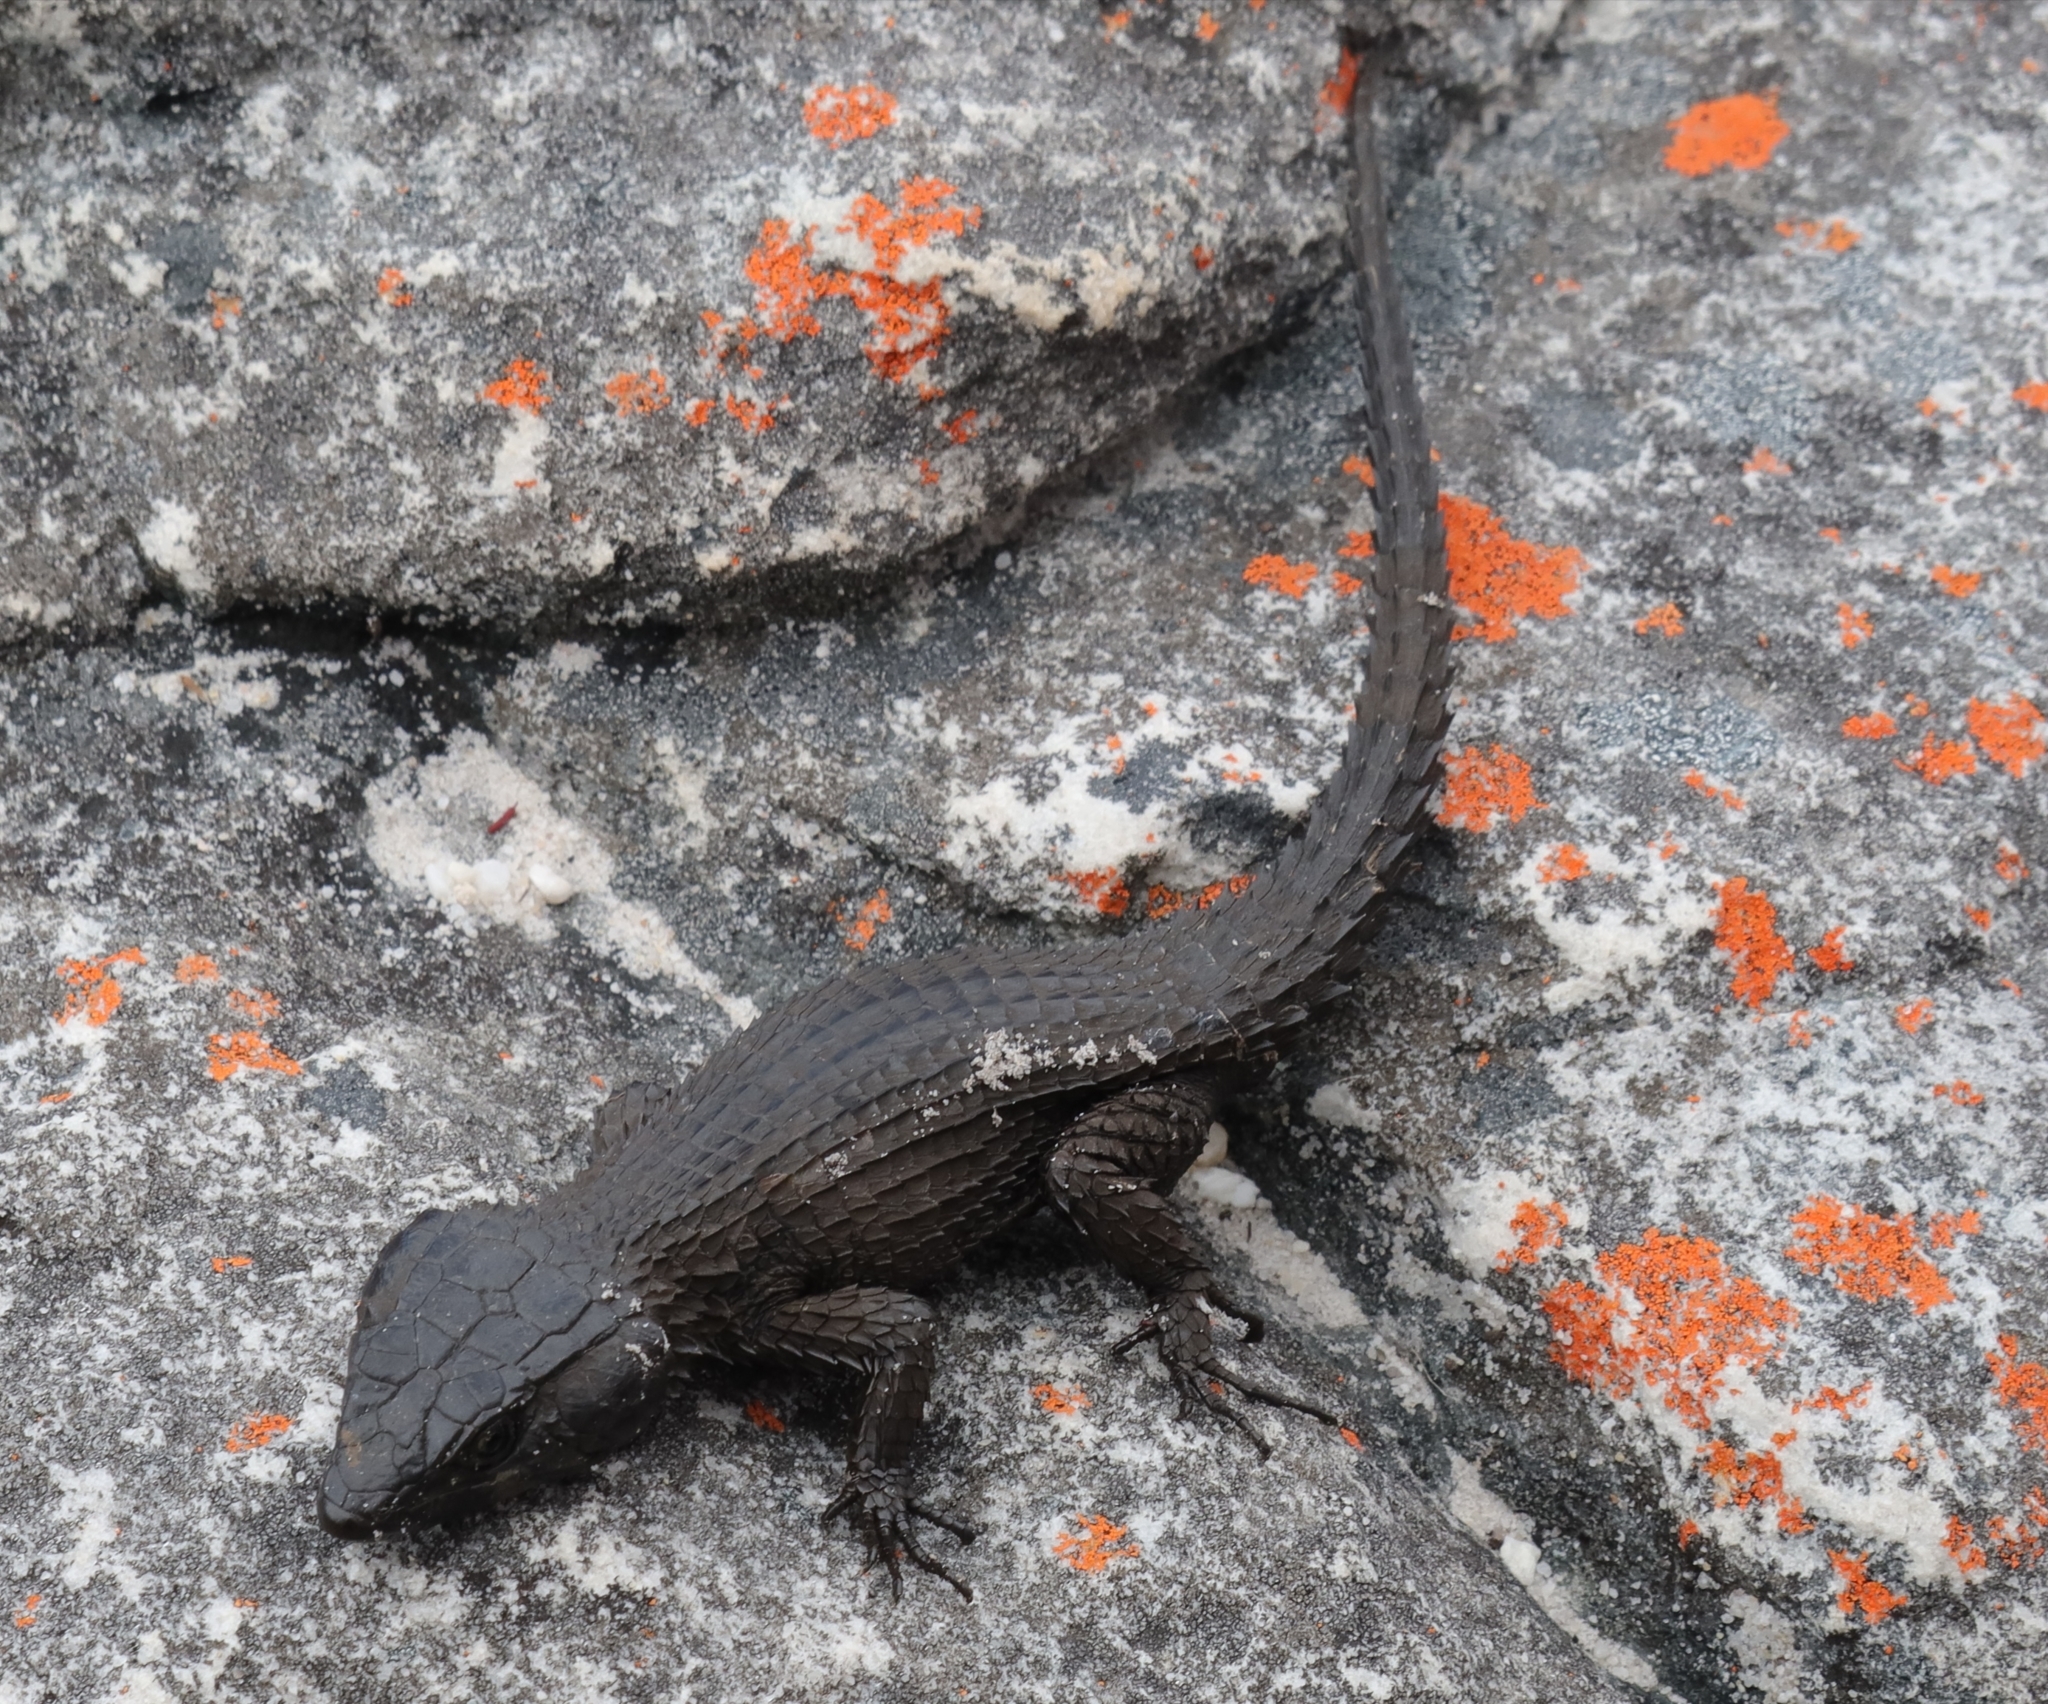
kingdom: Animalia
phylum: Chordata
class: Squamata
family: Cordylidae
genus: Cordylus
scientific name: Cordylus niger
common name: Black girdled lizard
